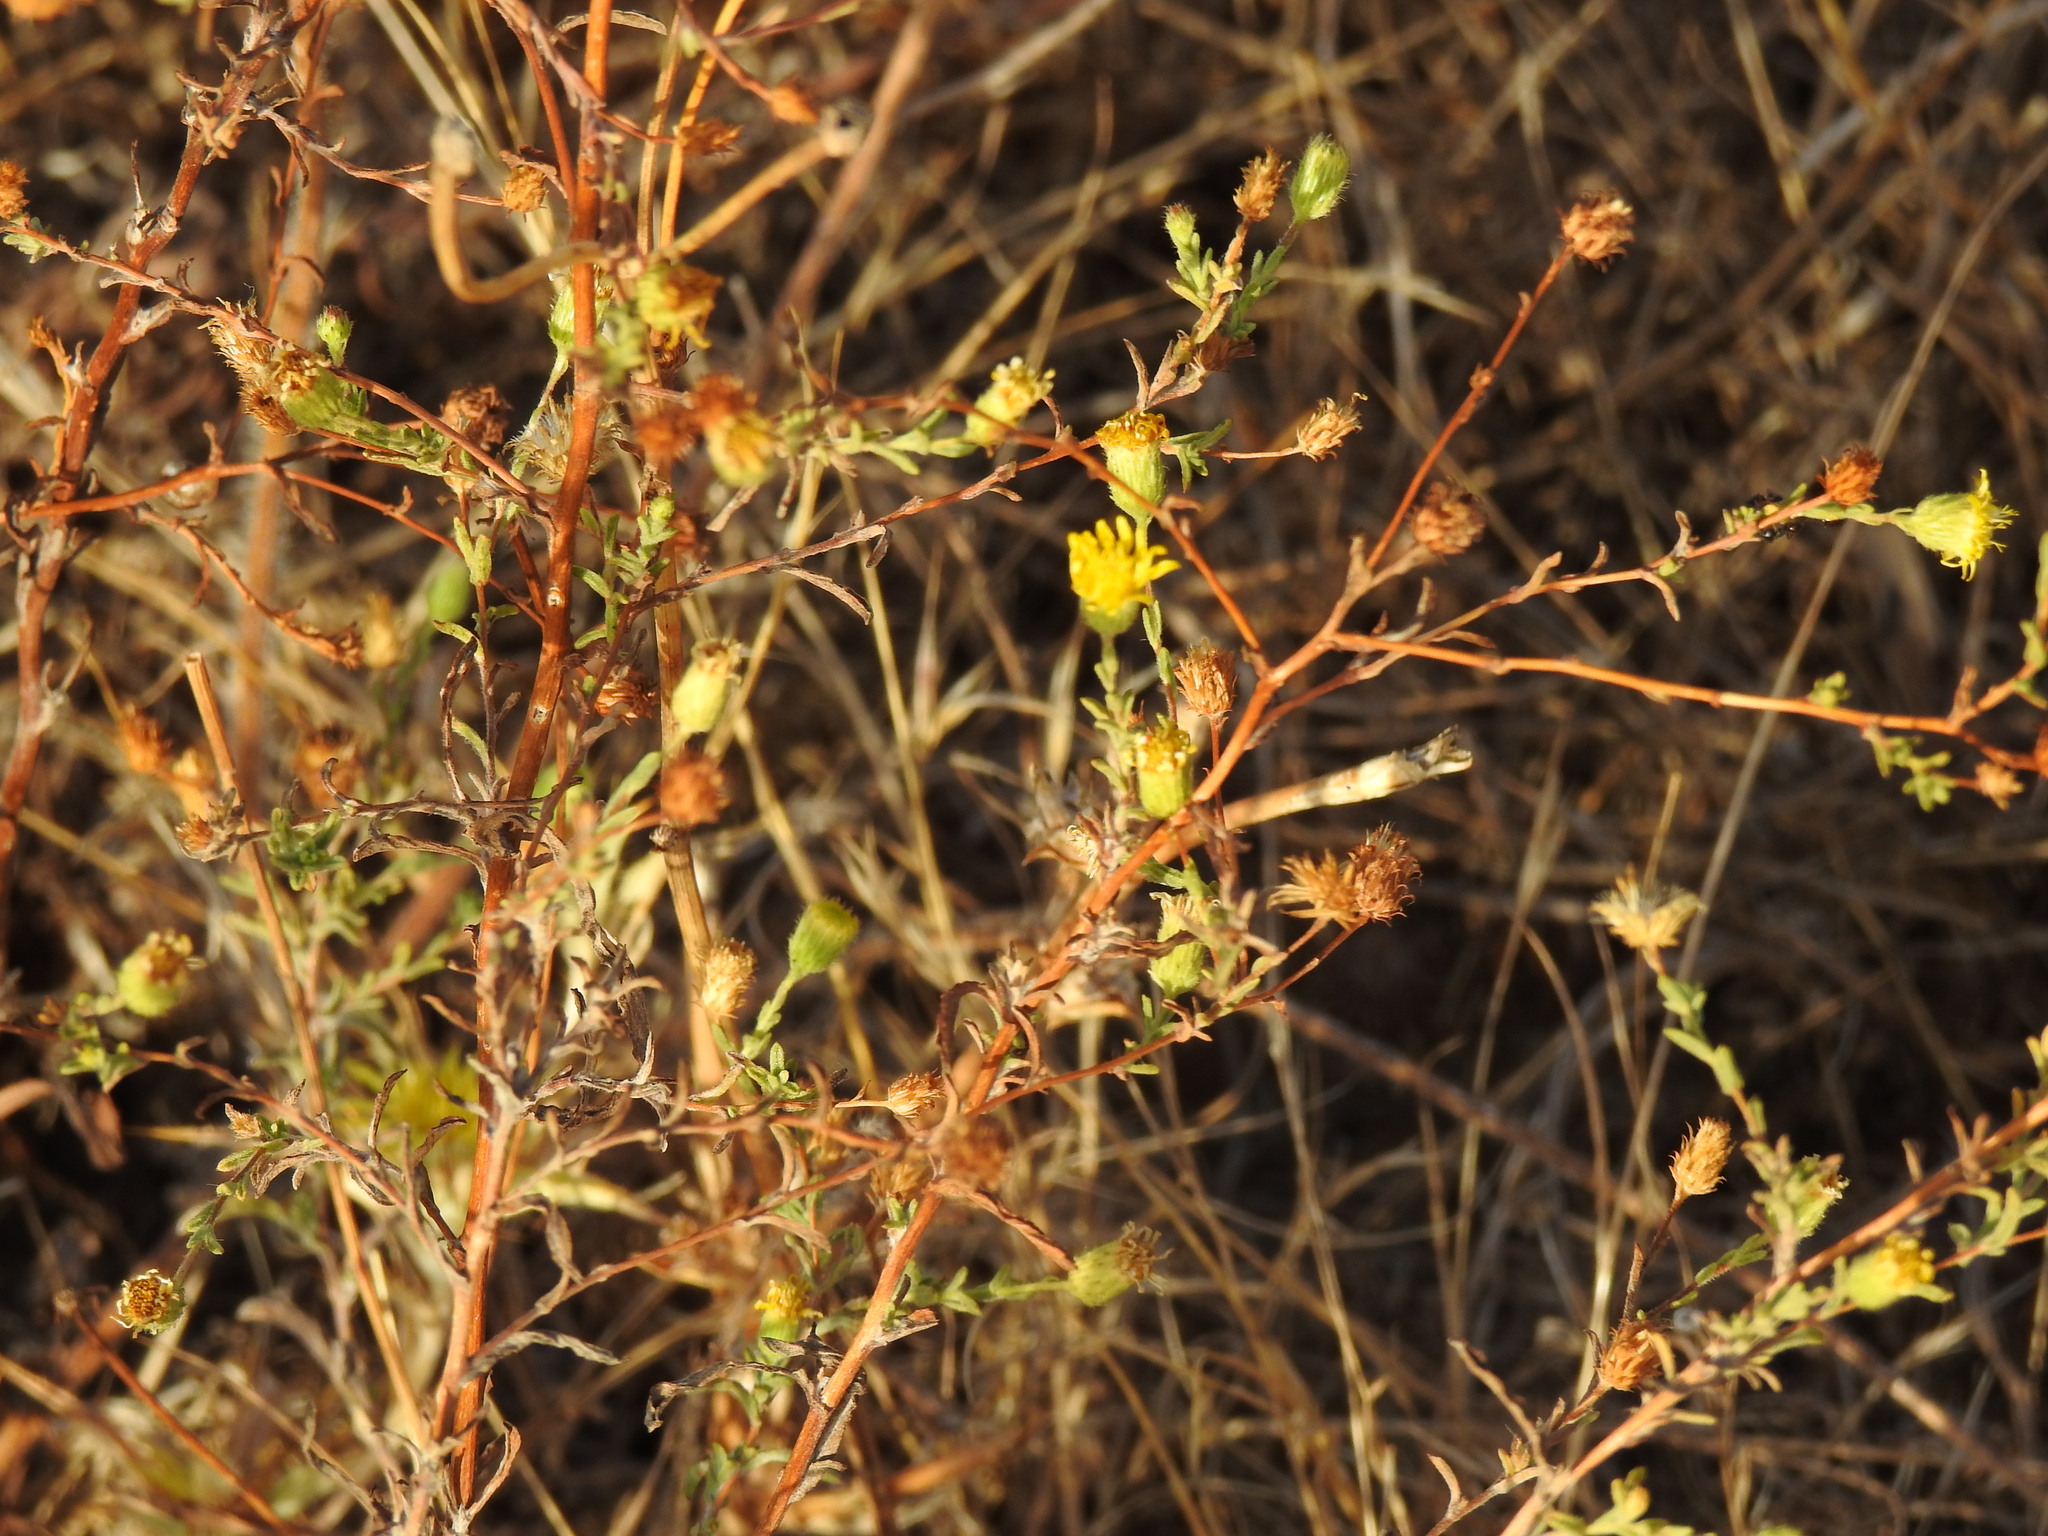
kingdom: Plantae
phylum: Tracheophyta
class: Magnoliopsida
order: Asterales
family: Asteraceae
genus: Pulicaria
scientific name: Pulicaria paludosa
